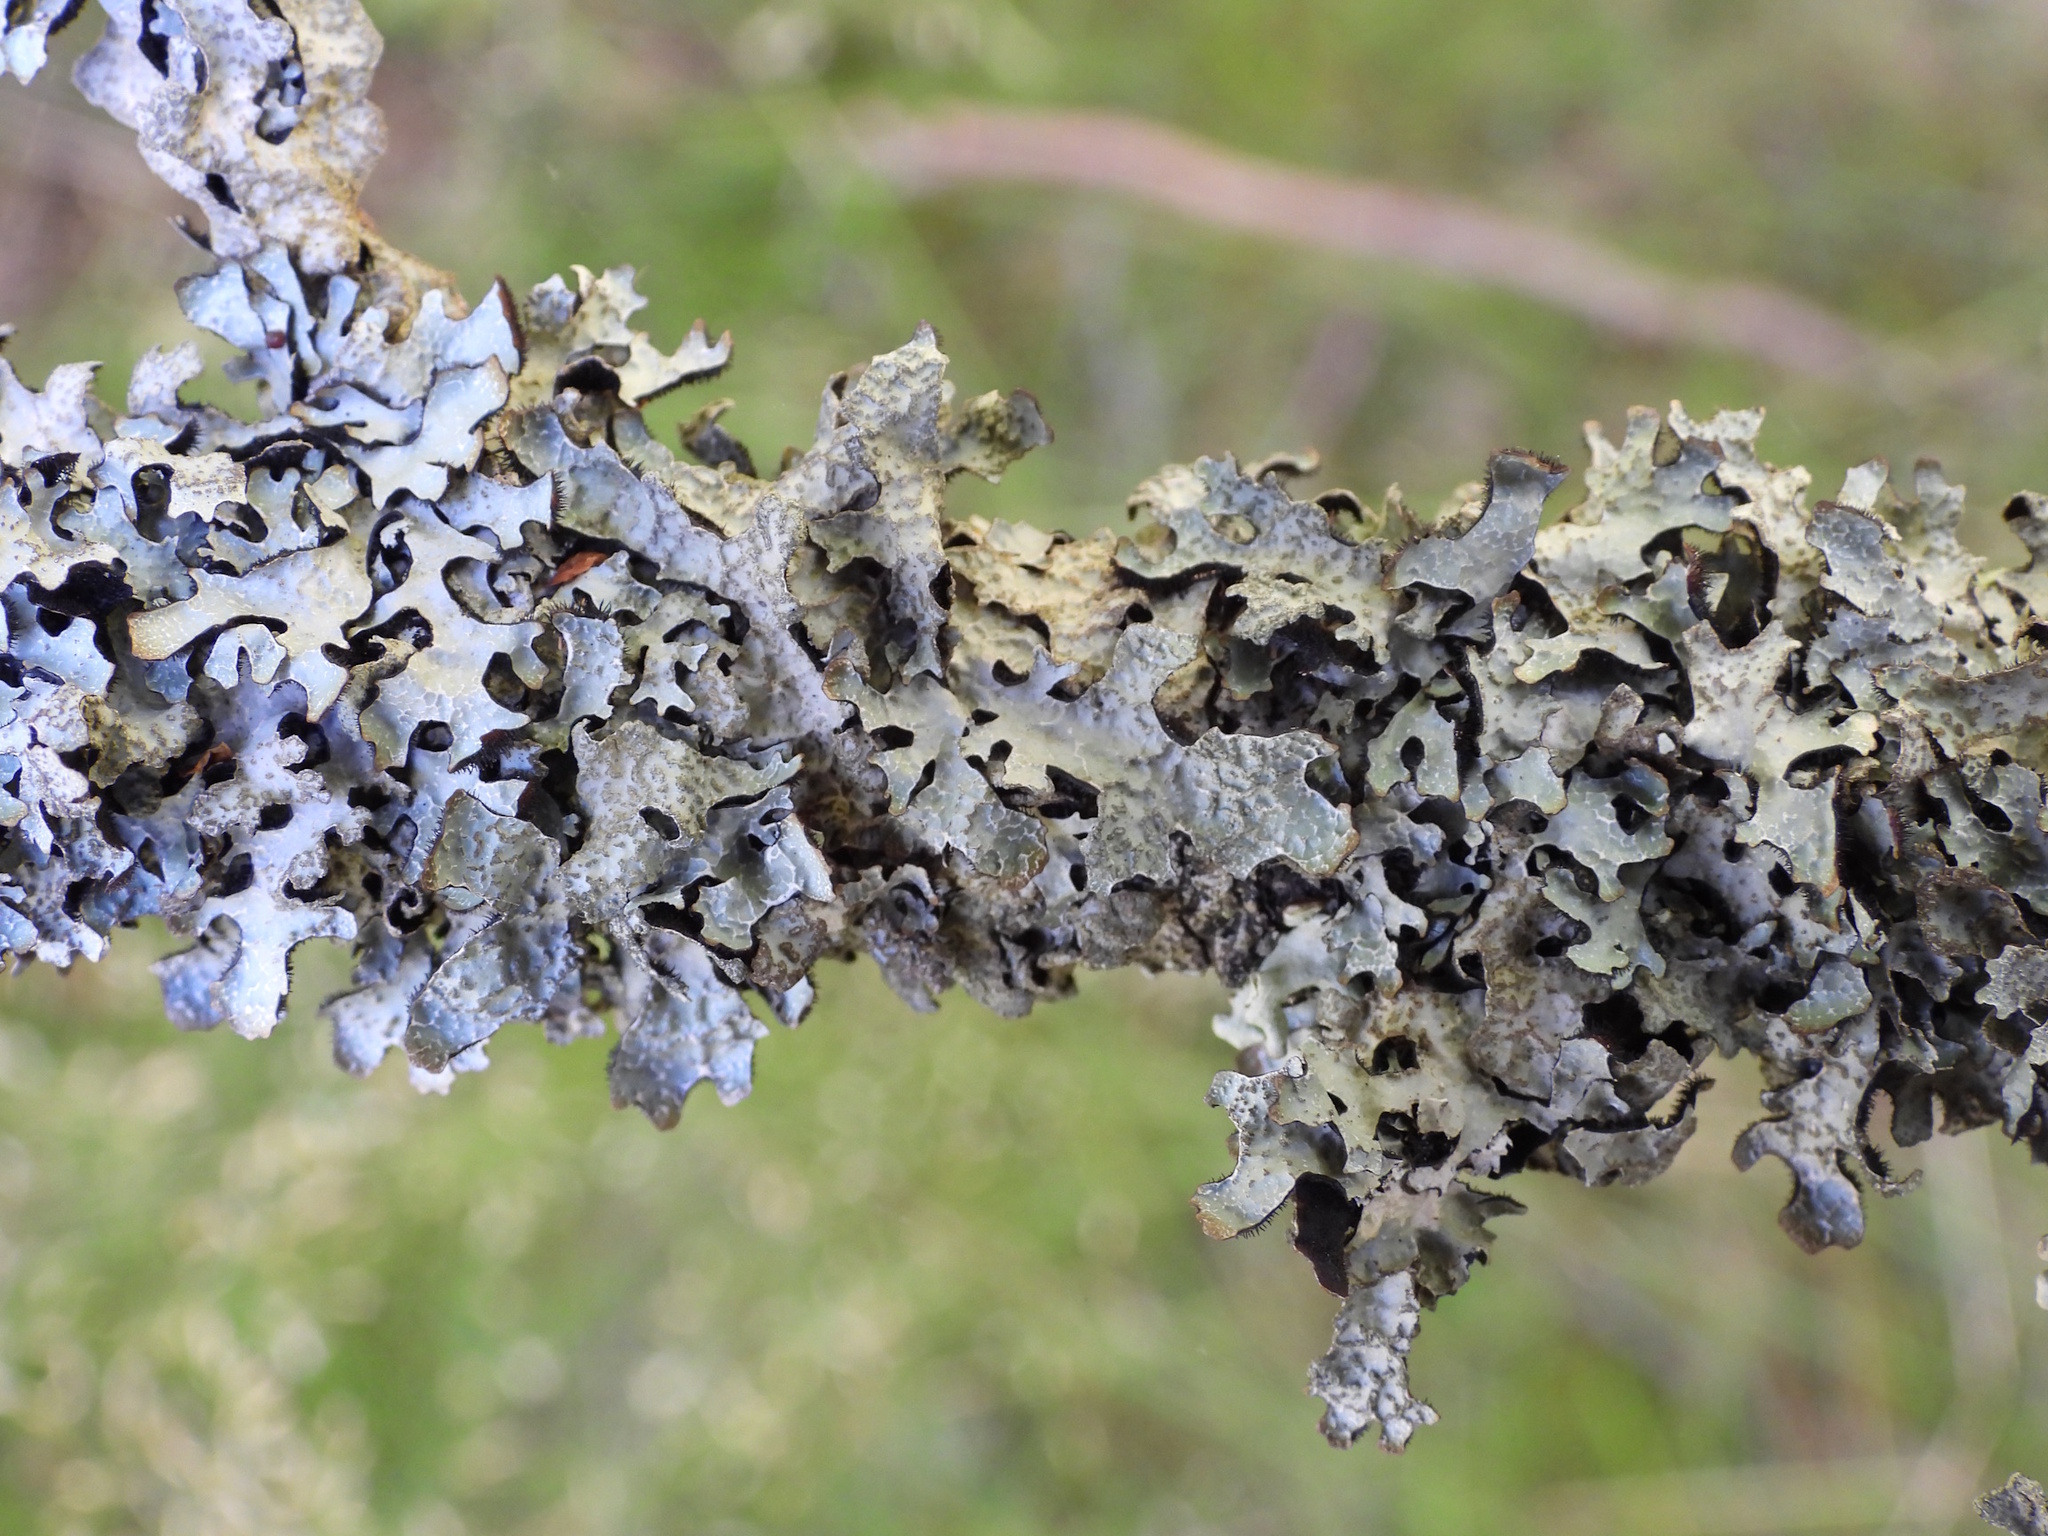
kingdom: Fungi
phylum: Ascomycota
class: Lecanoromycetes
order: Lecanorales
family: Parmeliaceae
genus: Parmelia
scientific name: Parmelia sulcata
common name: Netted shield lichen
